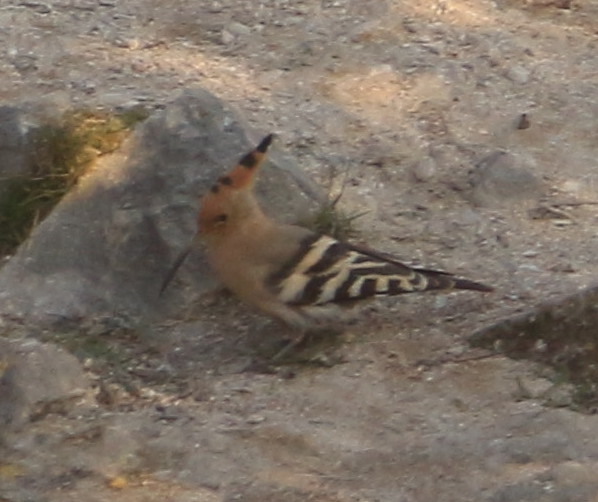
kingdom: Animalia
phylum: Chordata
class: Aves
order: Bucerotiformes
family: Upupidae
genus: Upupa
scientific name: Upupa epops
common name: Eurasian hoopoe
